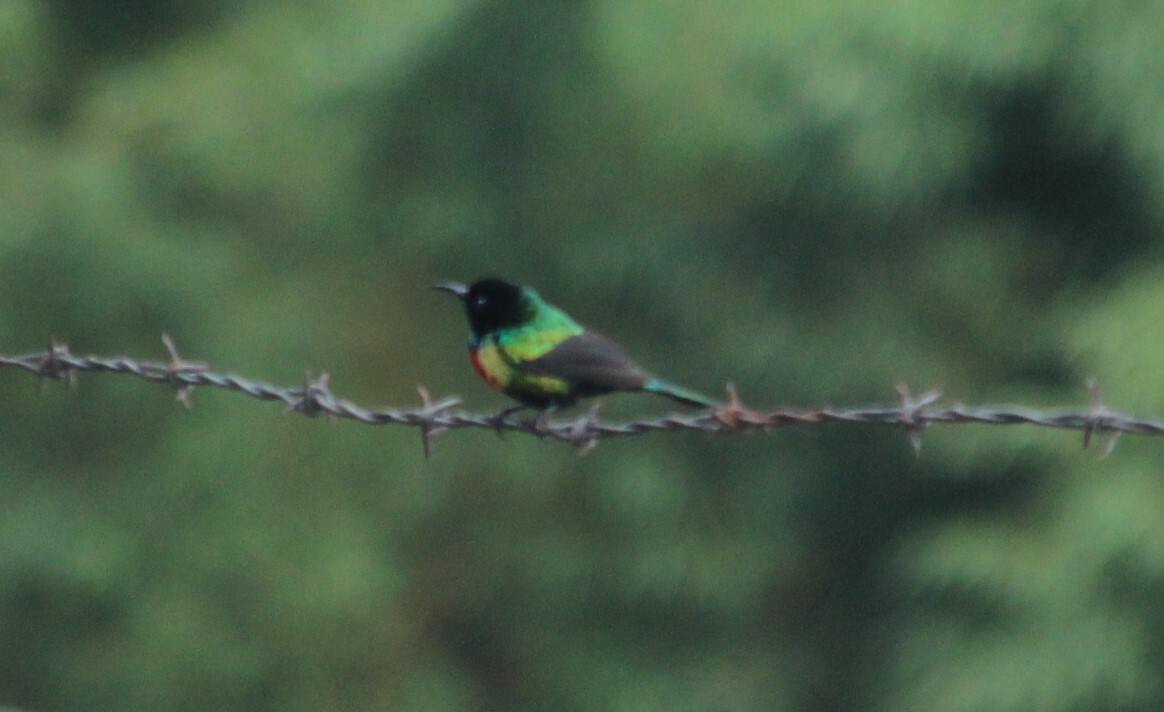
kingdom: Animalia
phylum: Chordata
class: Aves
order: Passeriformes
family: Nectariniidae
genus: Cinnyris
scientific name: Cinnyris pulchellus
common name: Beautiful sunbird
